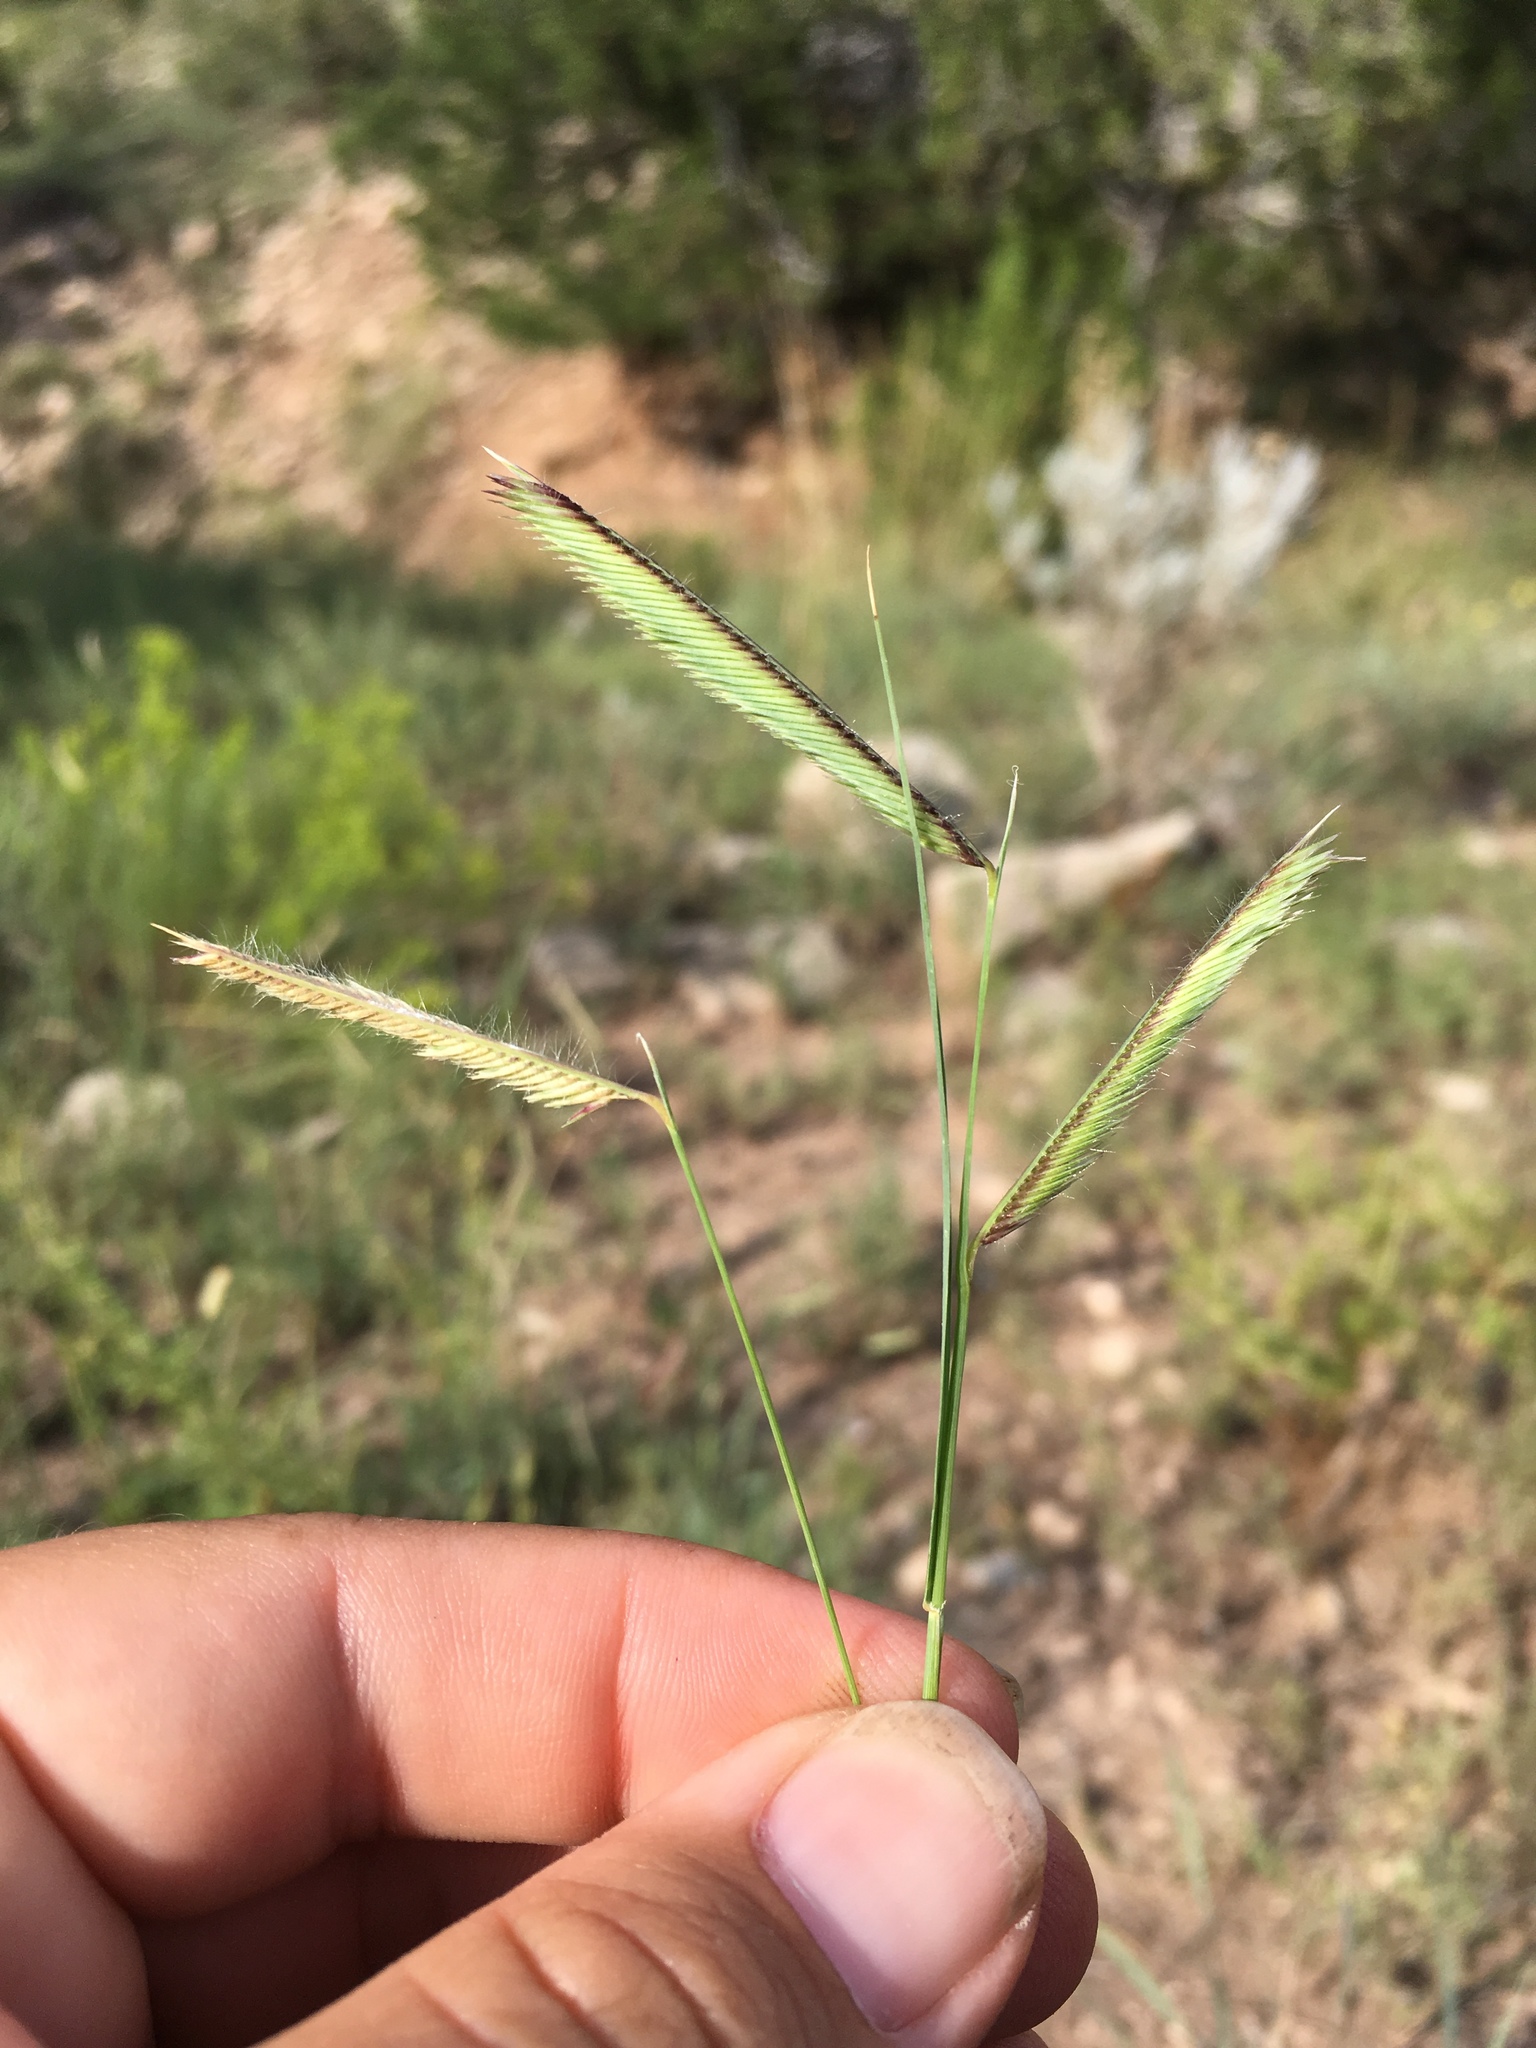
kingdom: Plantae
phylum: Tracheophyta
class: Liliopsida
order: Poales
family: Poaceae
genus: Bouteloua
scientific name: Bouteloua gracilis
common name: Blue grama
